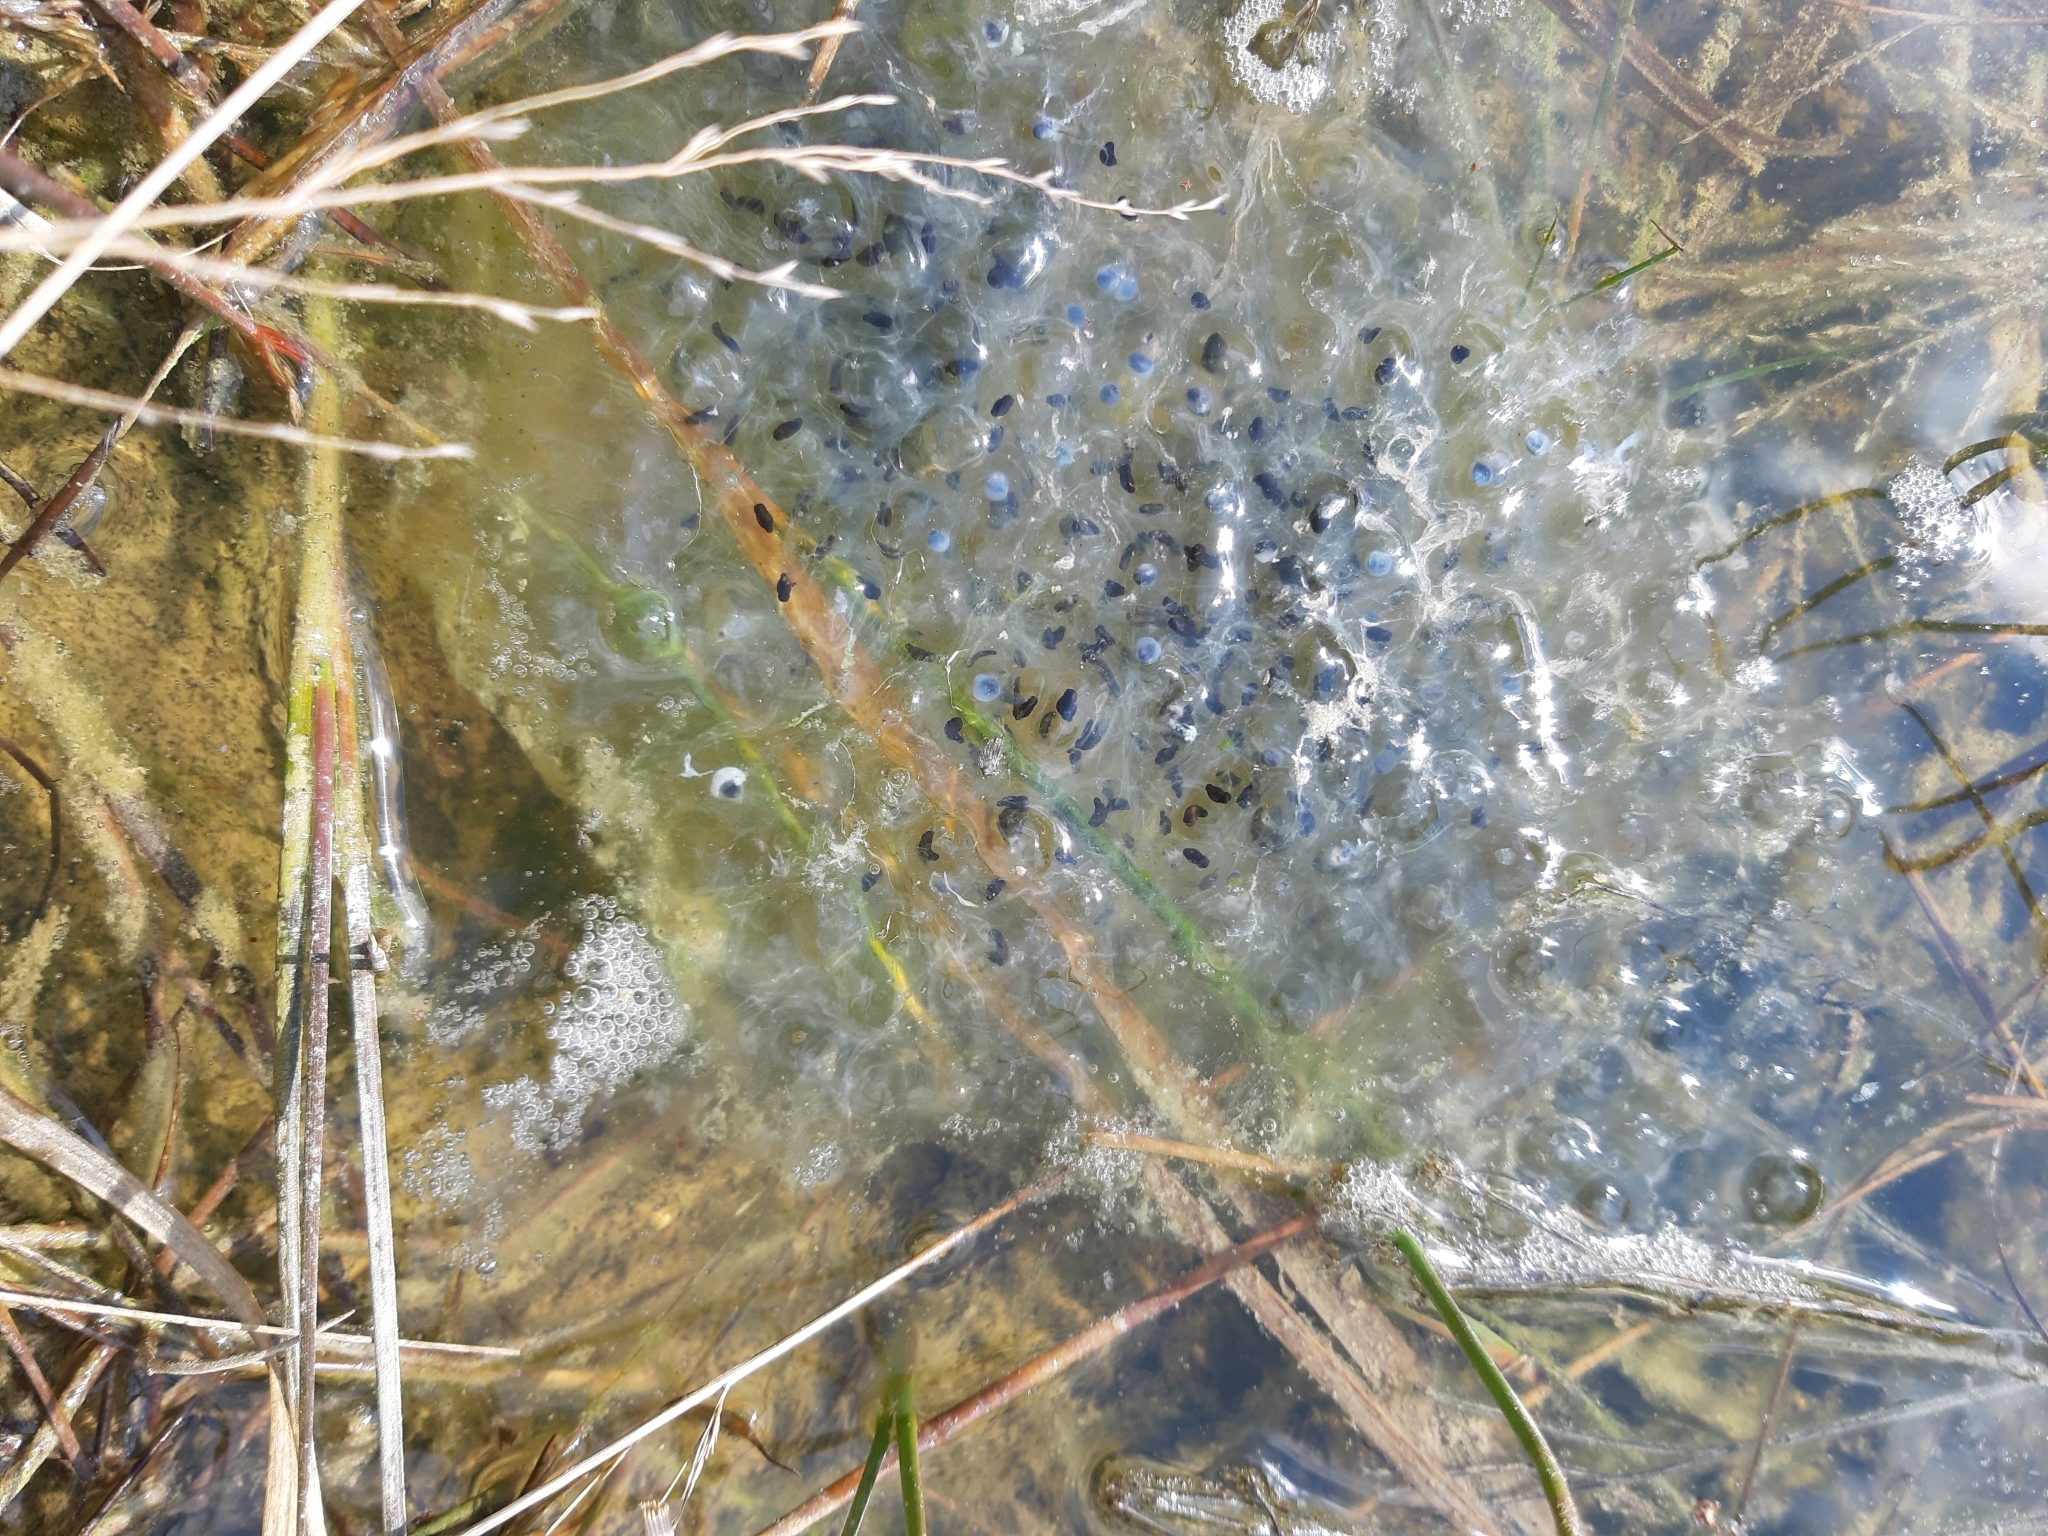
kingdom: Animalia
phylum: Chordata
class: Amphibia
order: Anura
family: Ranidae
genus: Rana
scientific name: Rana dalmatina
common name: Agile frog
